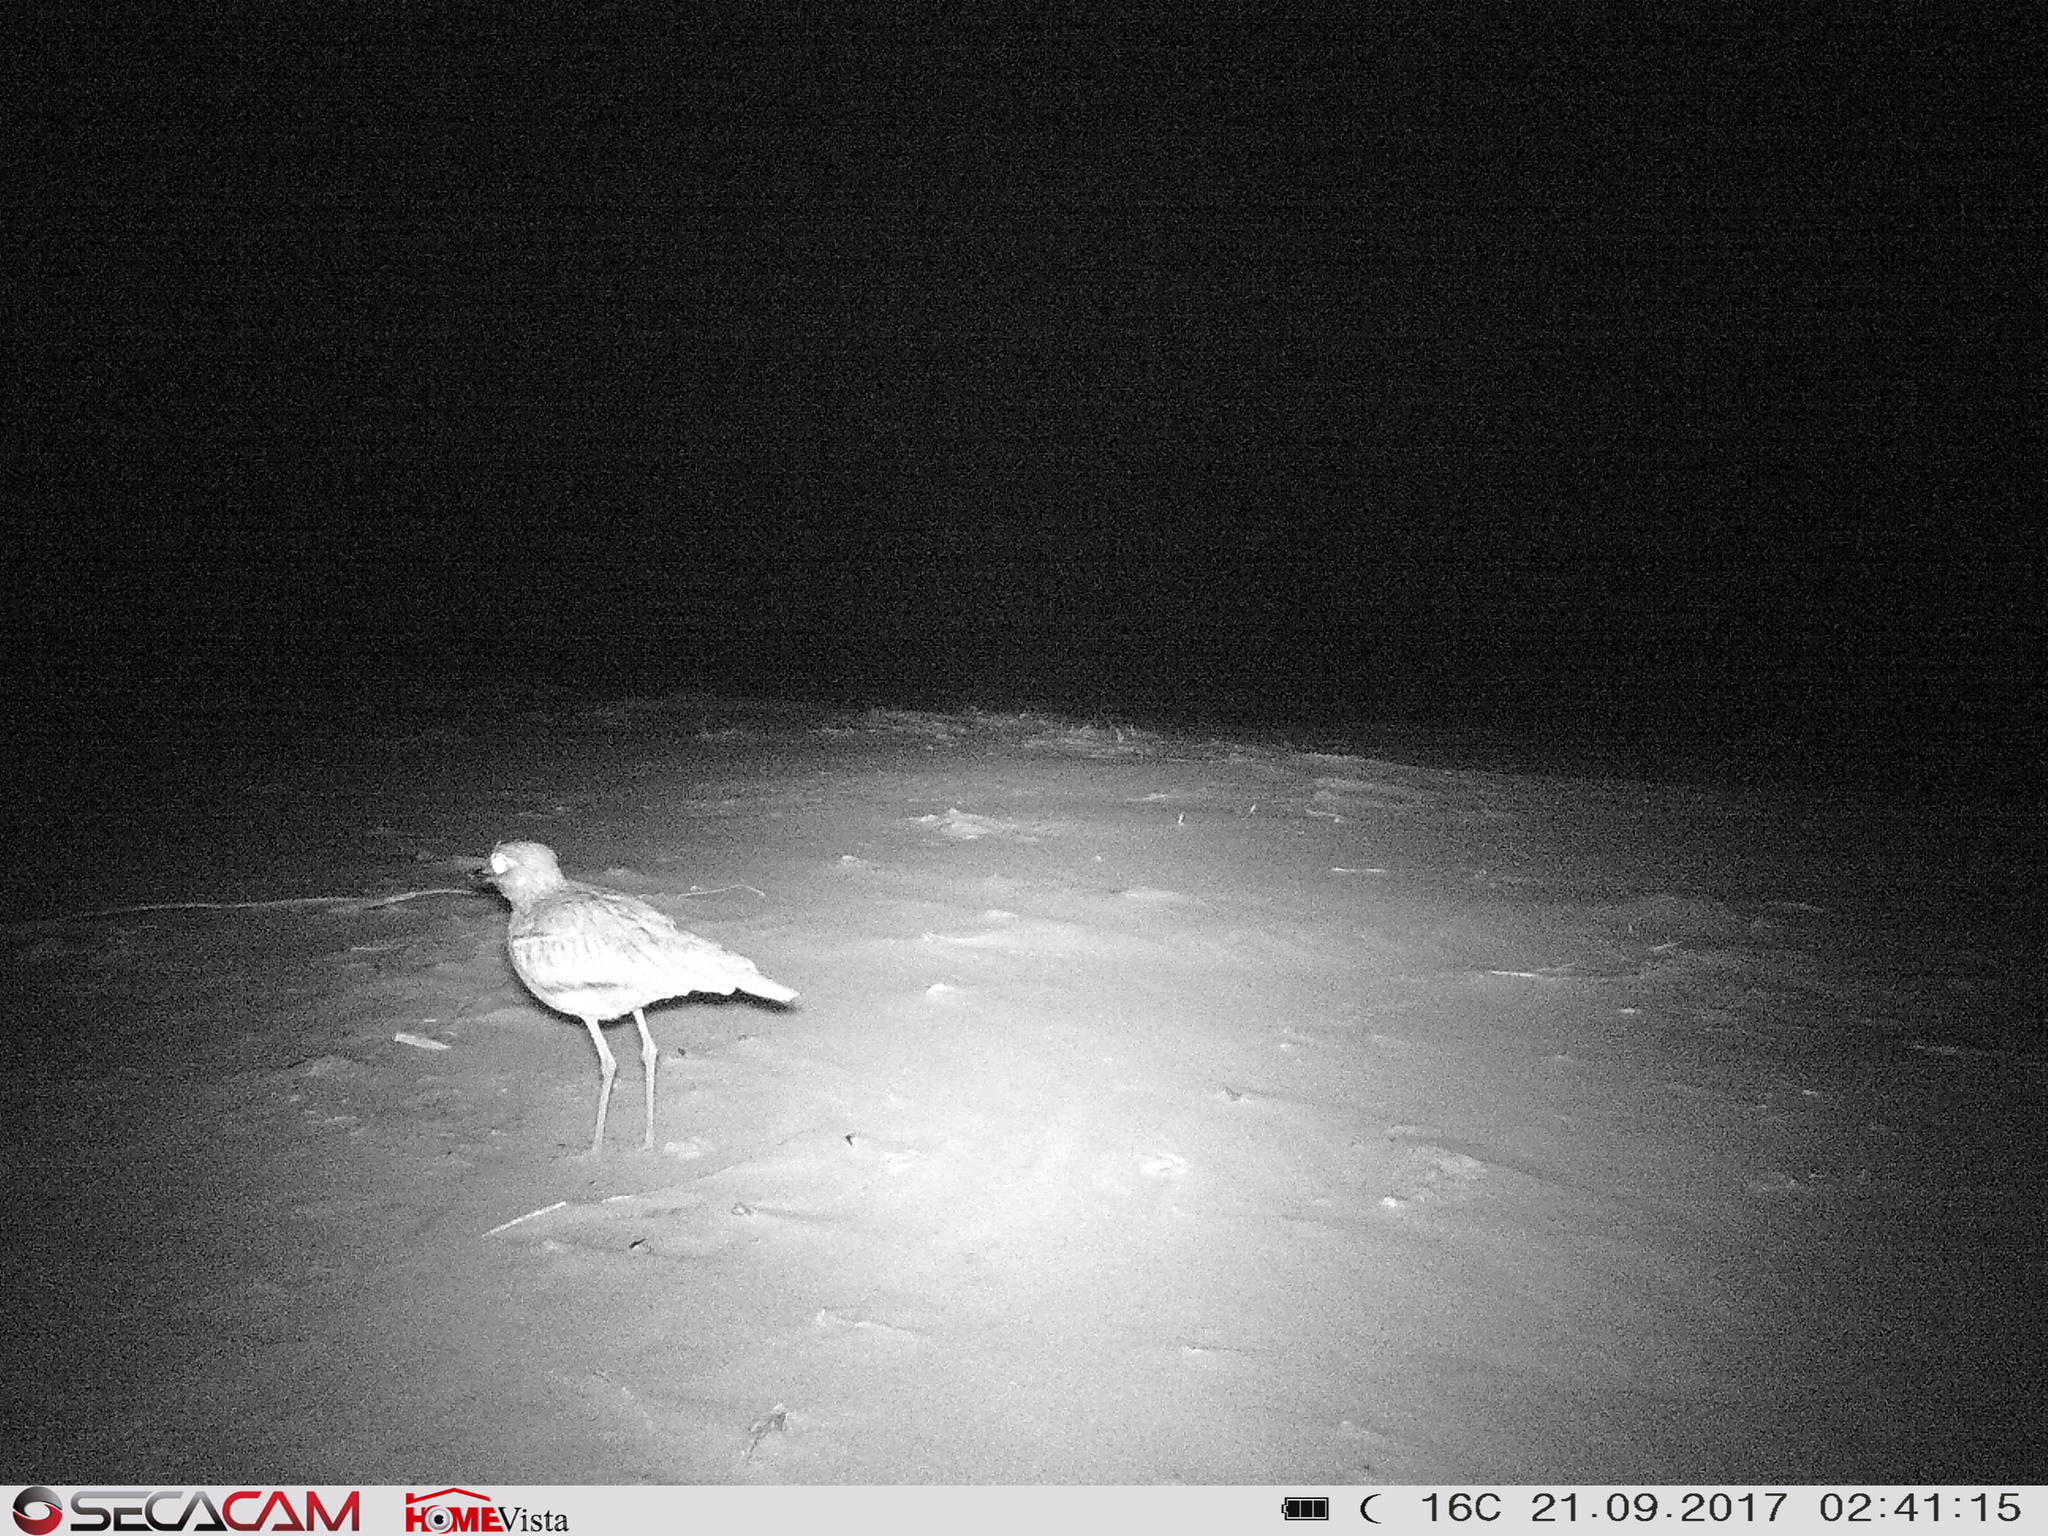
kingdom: Animalia
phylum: Chordata
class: Aves
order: Charadriiformes
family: Burhinidae
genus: Burhinus
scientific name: Burhinus vermiculatus
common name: Water thick-knee
